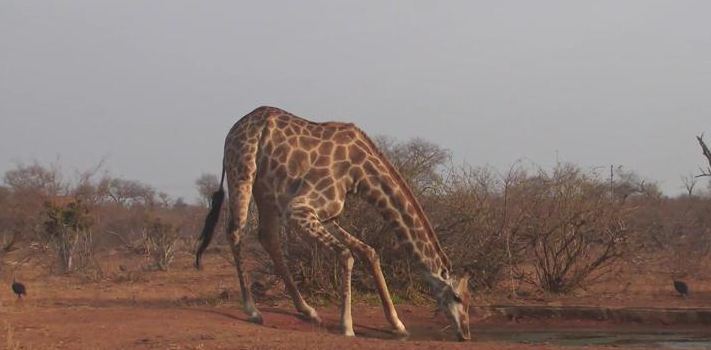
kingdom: Animalia
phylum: Chordata
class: Mammalia
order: Artiodactyla
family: Giraffidae
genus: Giraffa
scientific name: Giraffa giraffa
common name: Southern giraffe
